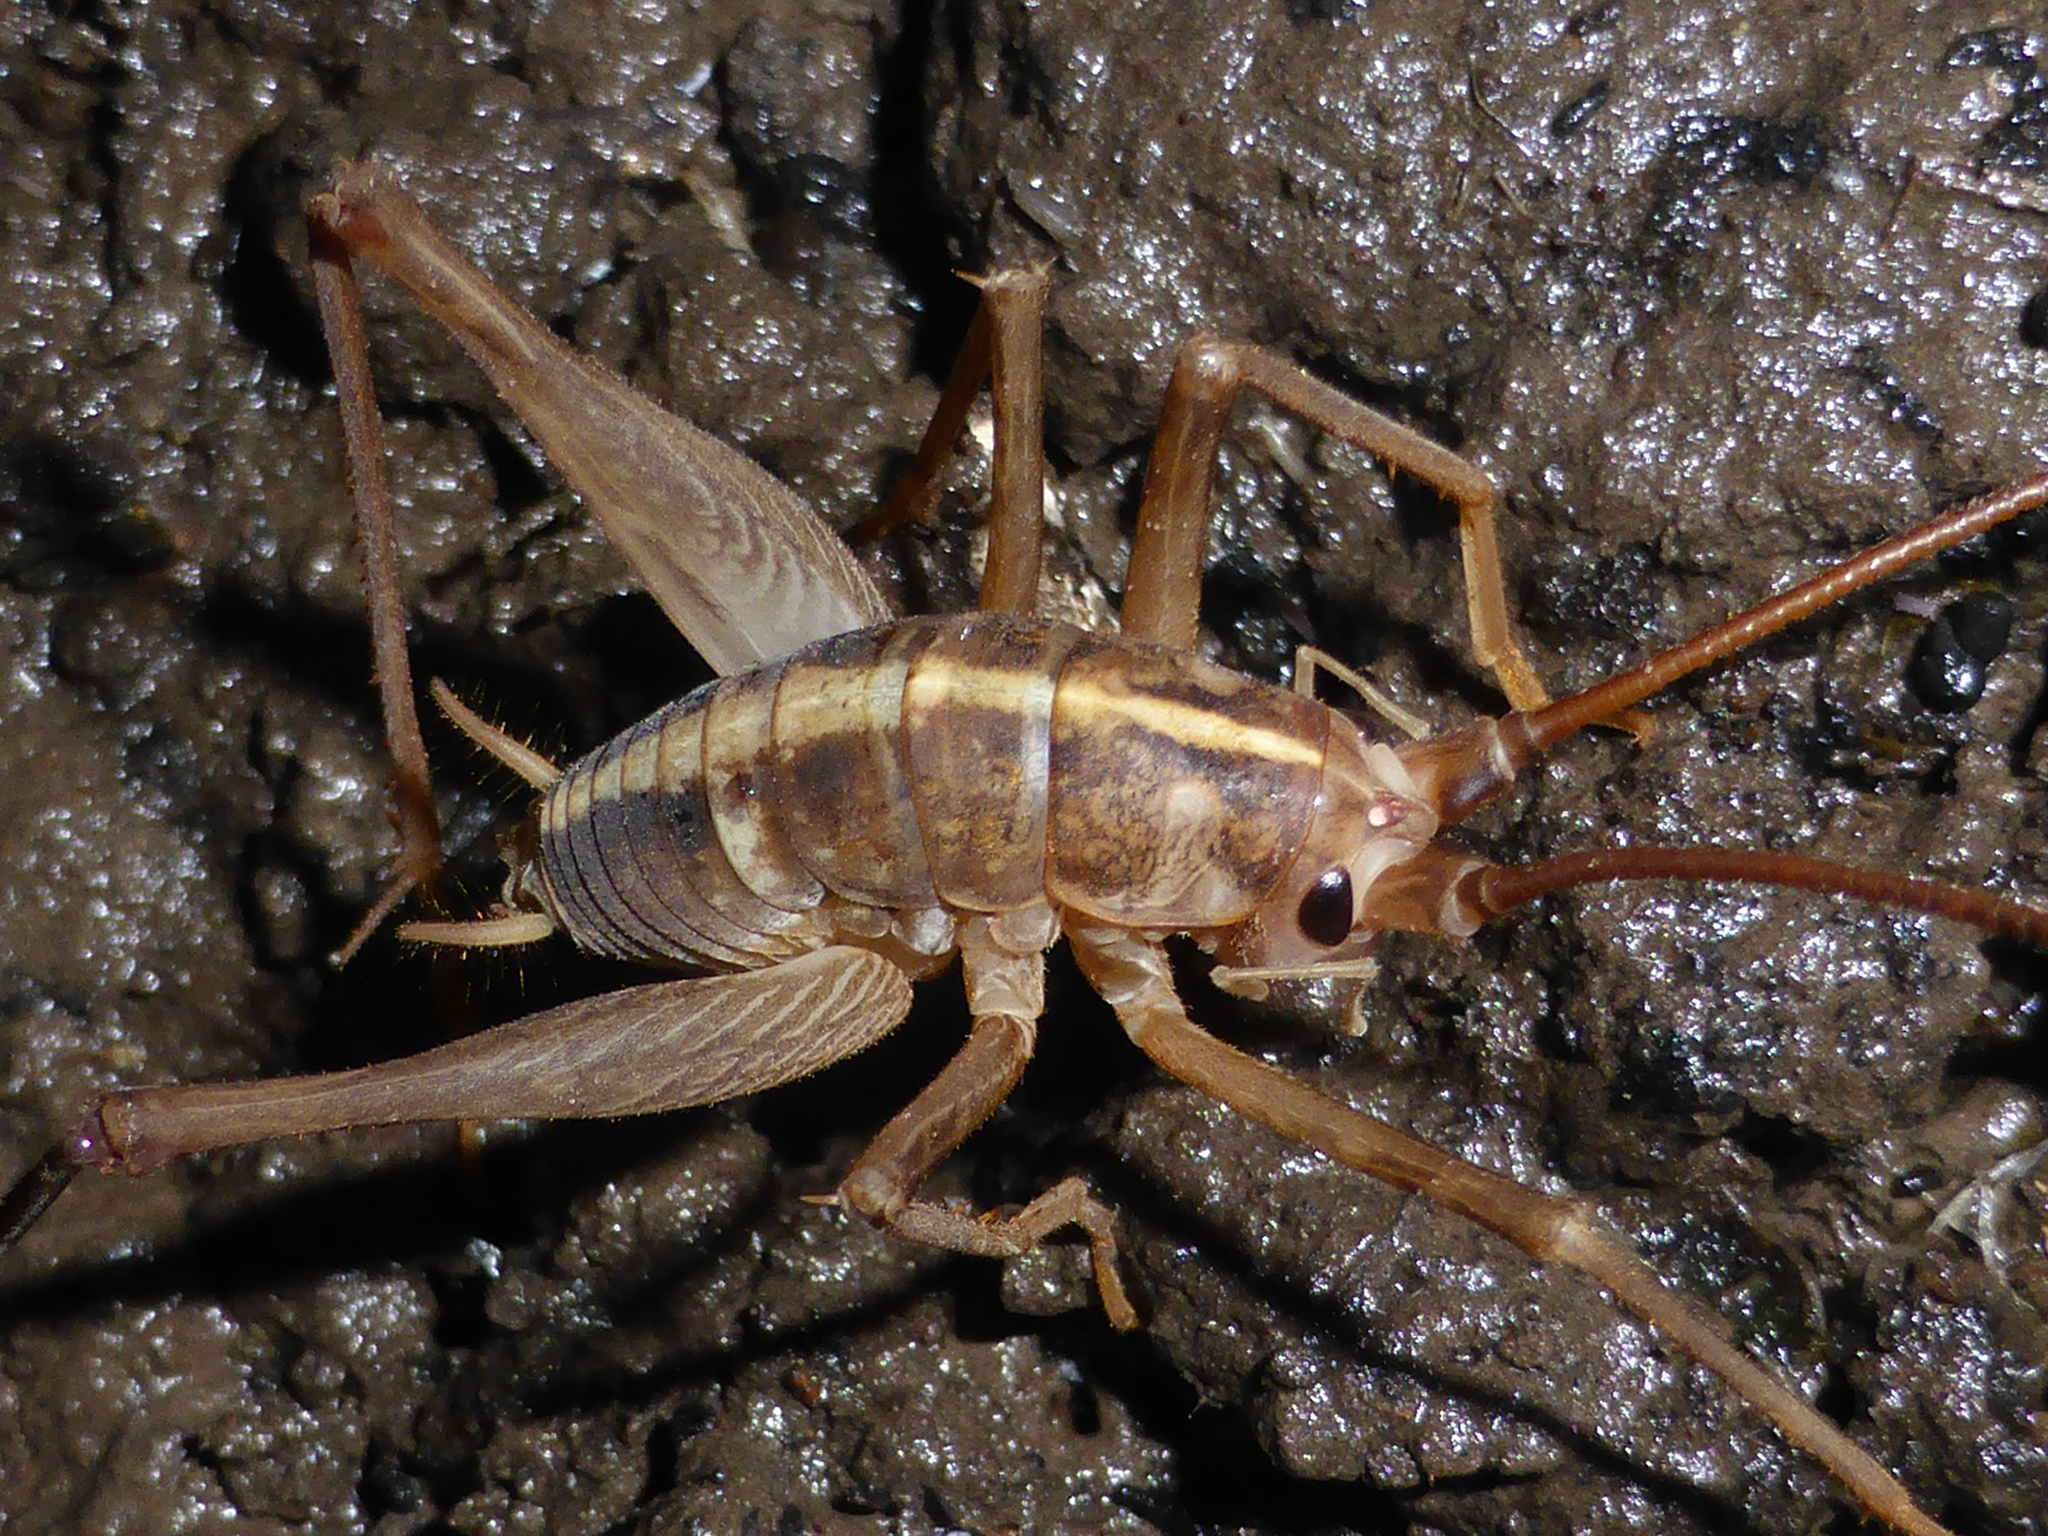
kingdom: Animalia
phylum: Arthropoda
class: Insecta
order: Orthoptera
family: Rhaphidophoridae
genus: Pleioplectron
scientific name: Pleioplectron simplex
